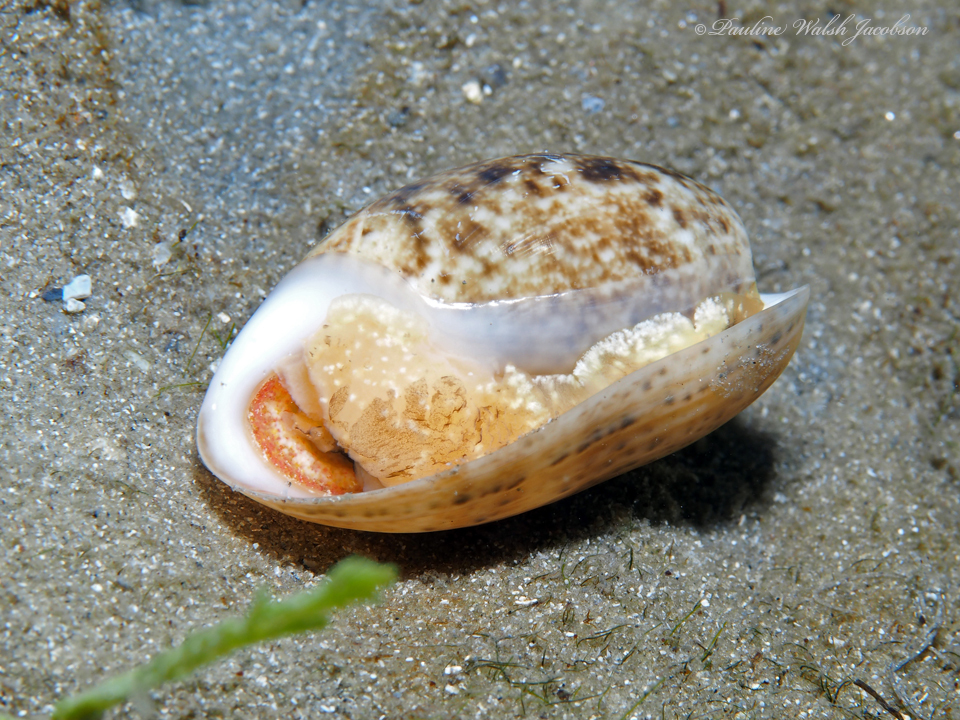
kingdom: Animalia
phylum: Mollusca
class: Gastropoda
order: Cephalaspidea
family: Bullidae
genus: Bulla
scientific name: Bulla occidentalis
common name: Common west-indian bubble
